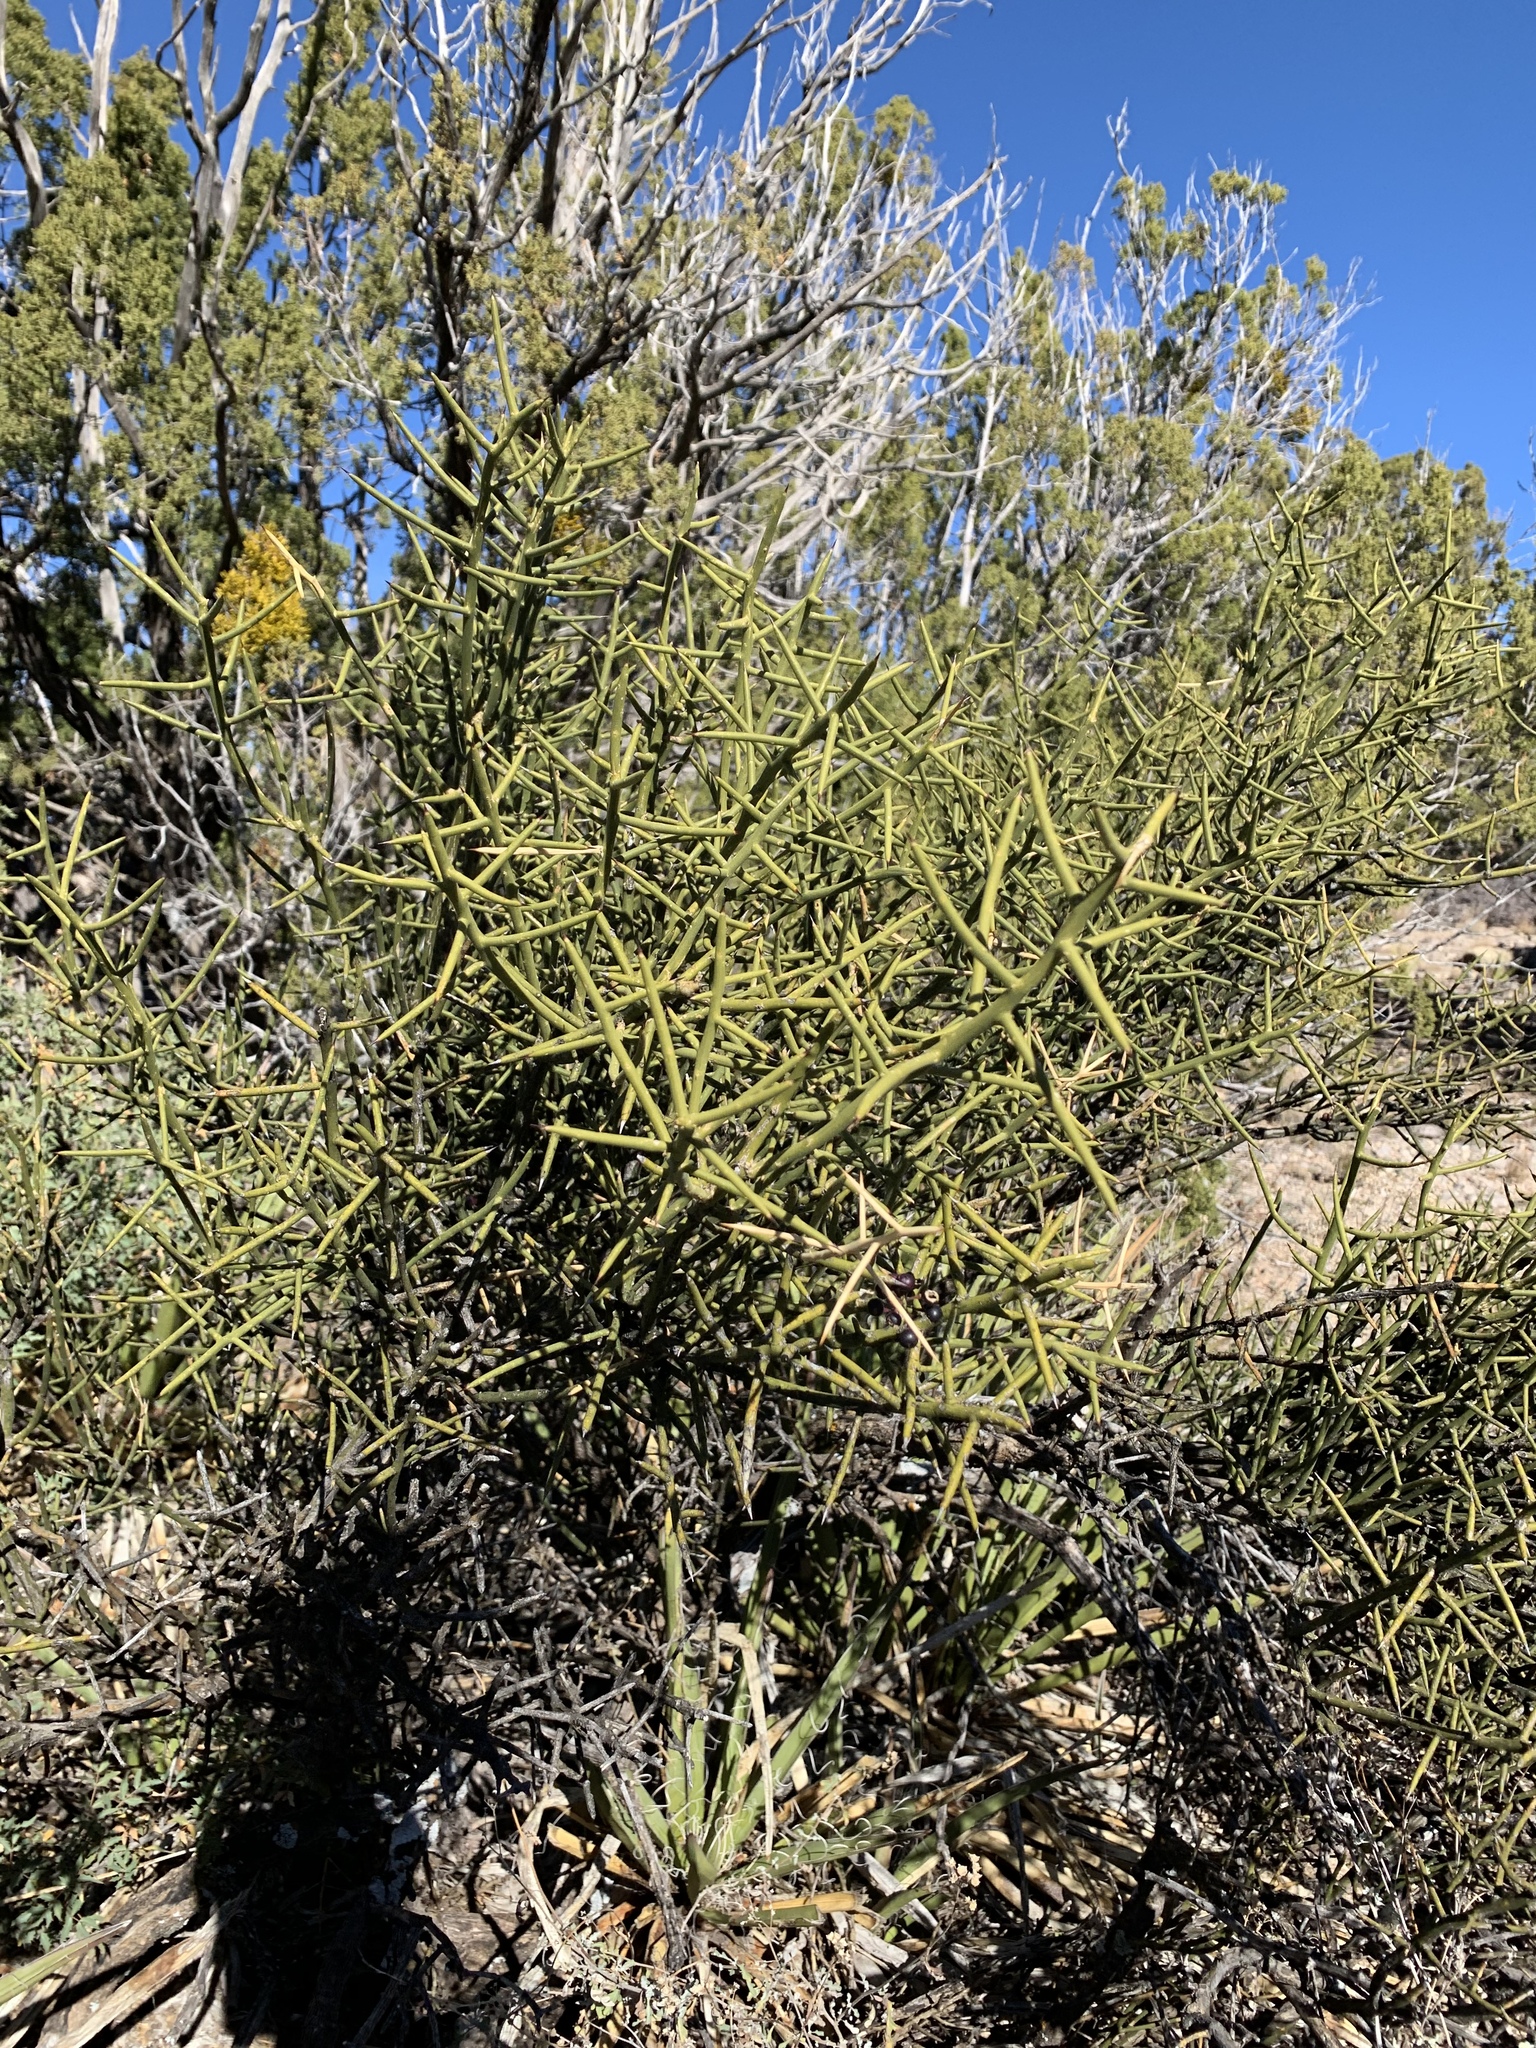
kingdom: Plantae
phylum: Tracheophyta
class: Magnoliopsida
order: Brassicales
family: Koeberliniaceae
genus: Koeberlinia
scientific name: Koeberlinia spinosa
